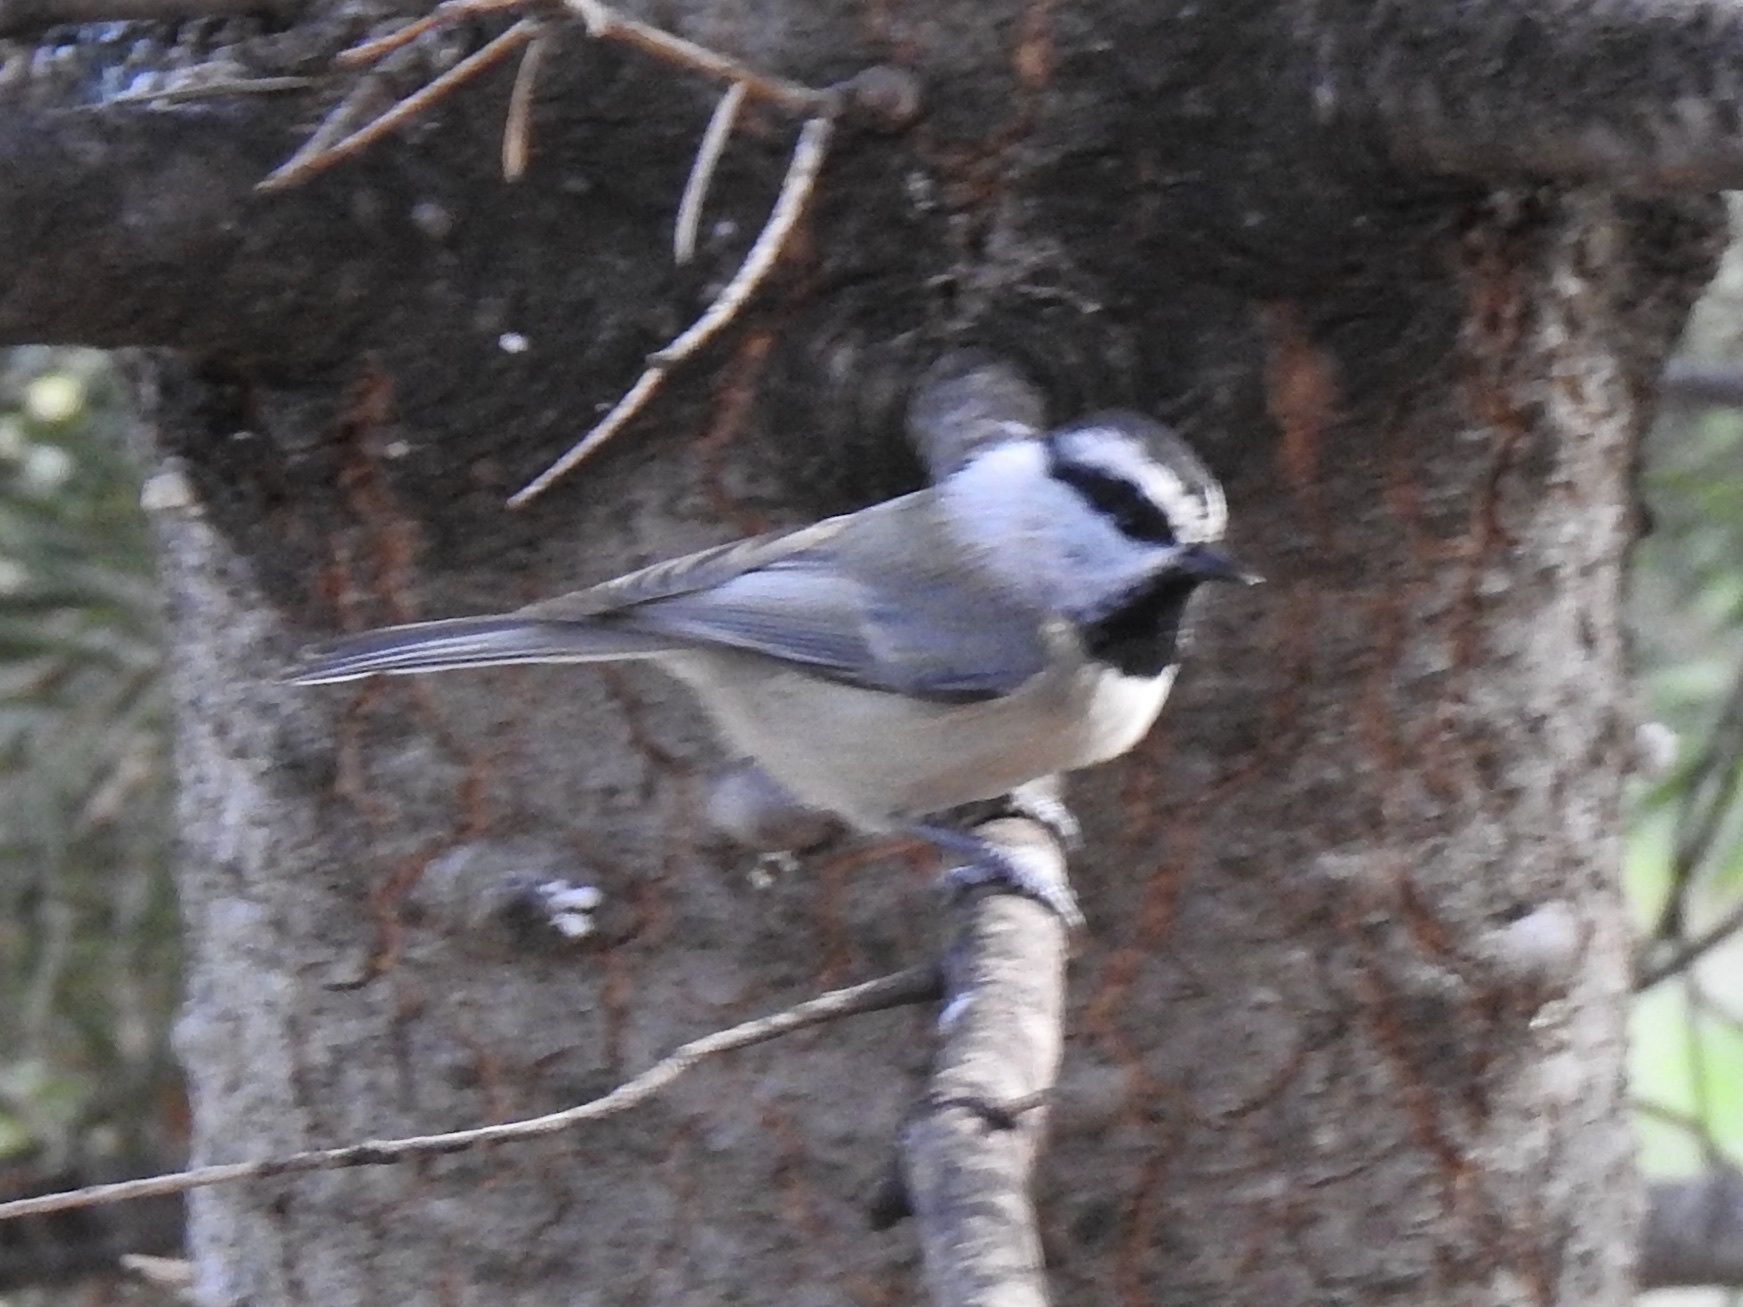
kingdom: Animalia
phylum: Chordata
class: Aves
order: Passeriformes
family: Paridae
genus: Poecile
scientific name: Poecile gambeli
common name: Mountain chickadee
